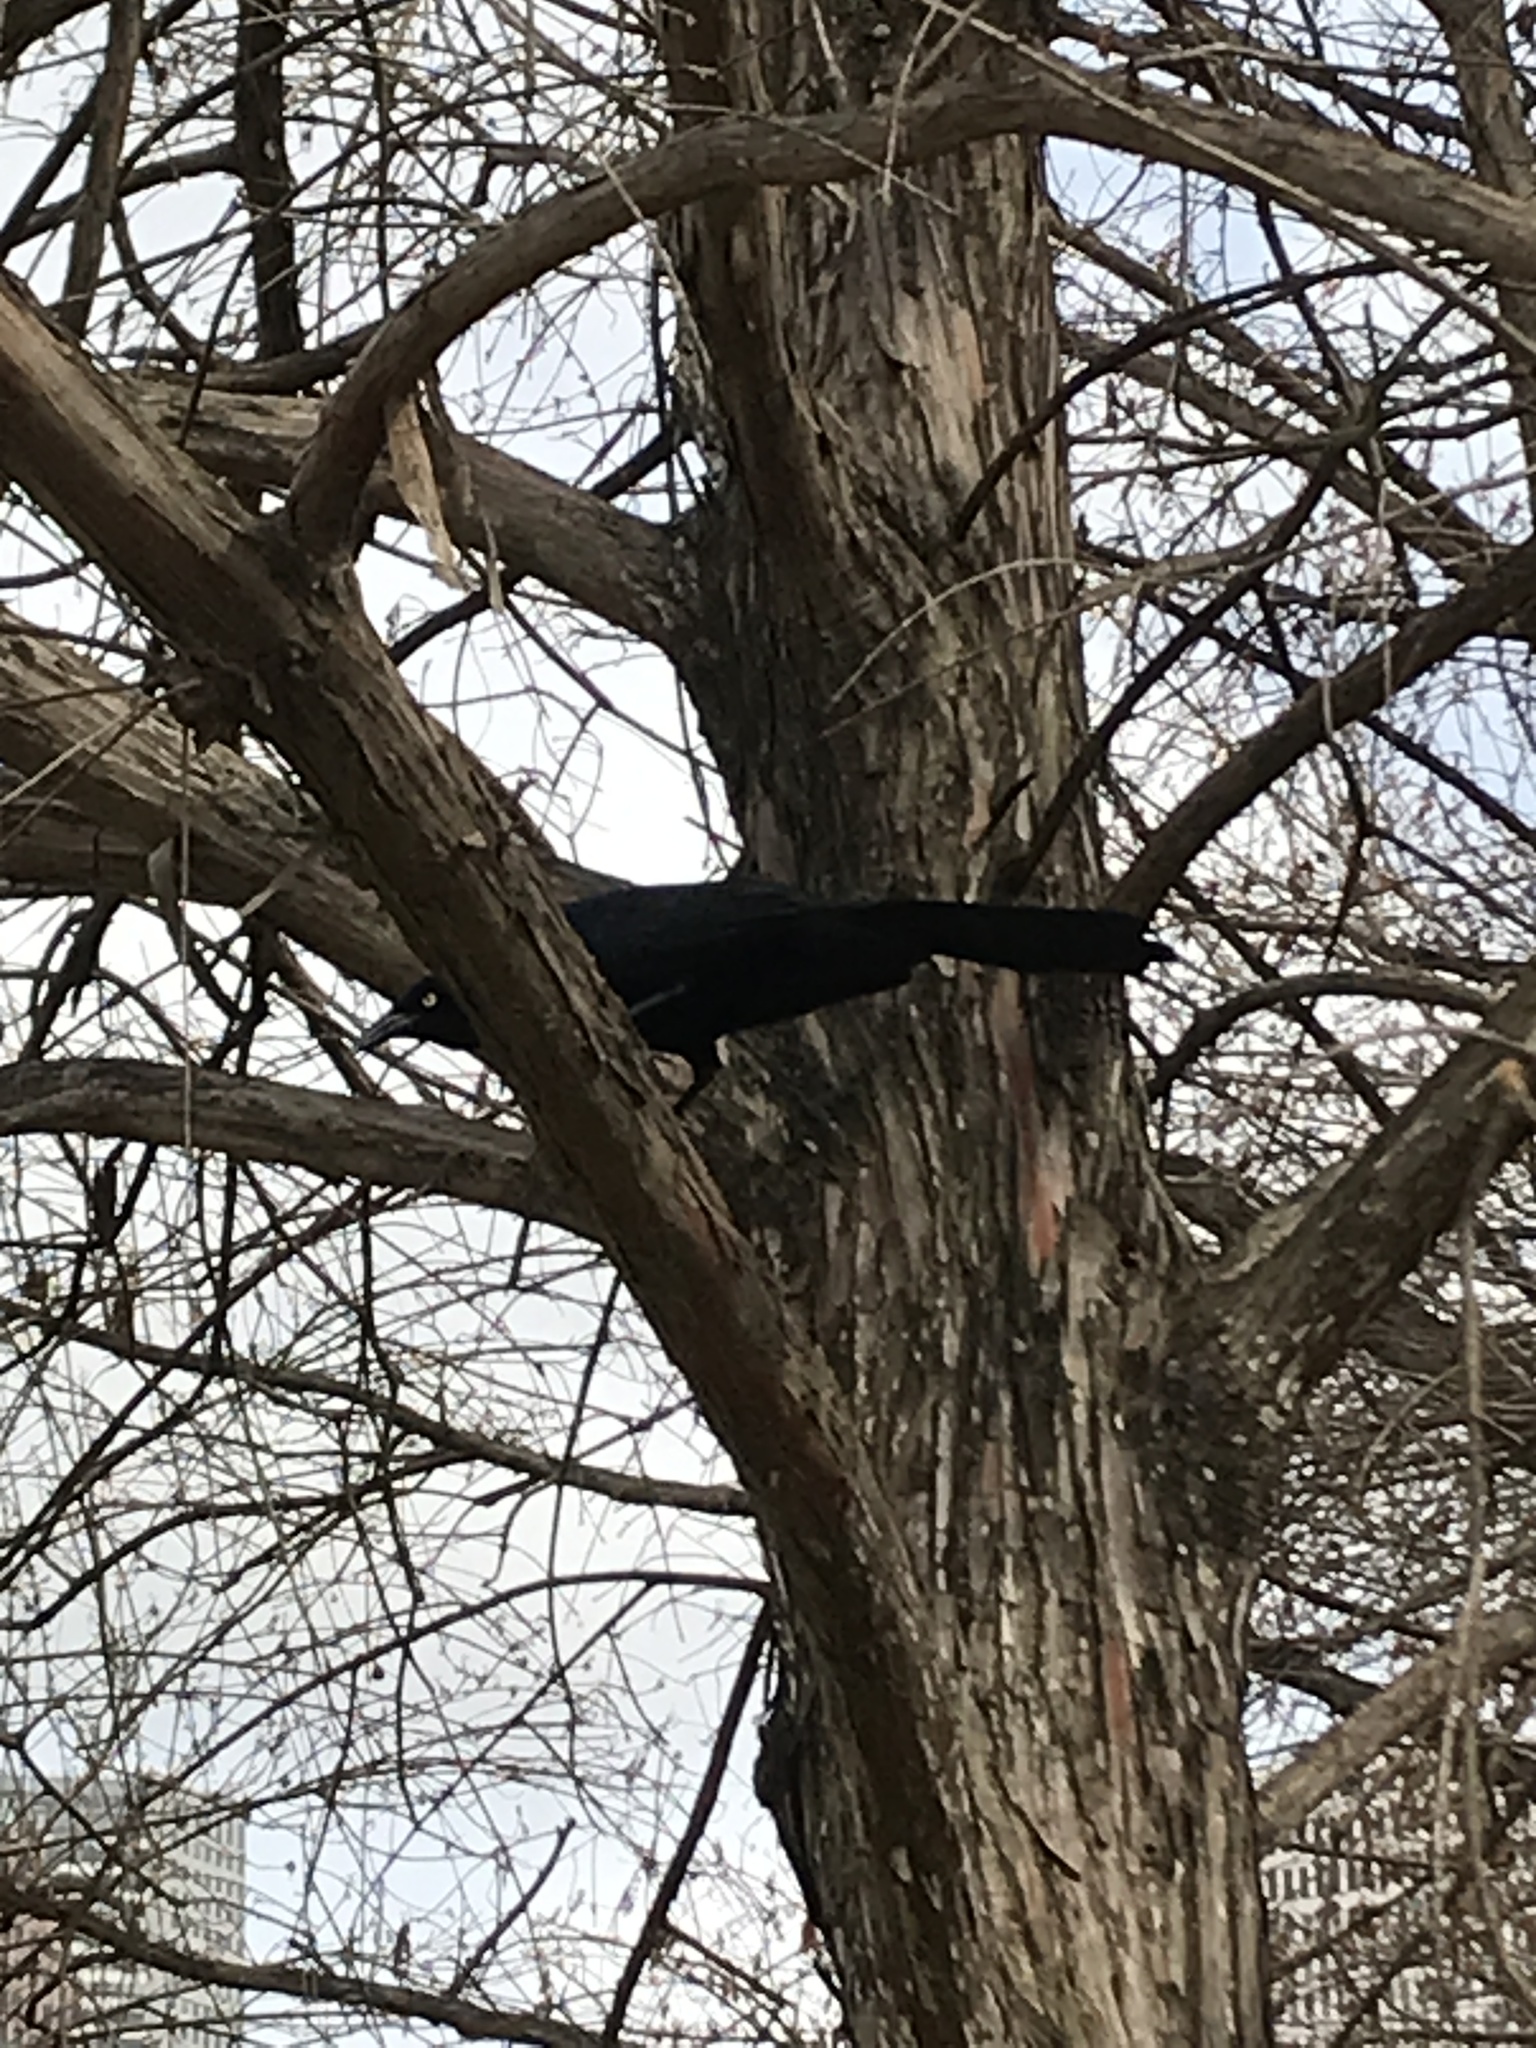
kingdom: Animalia
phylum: Chordata
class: Aves
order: Passeriformes
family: Icteridae
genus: Quiscalus
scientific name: Quiscalus mexicanus
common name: Great-tailed grackle
